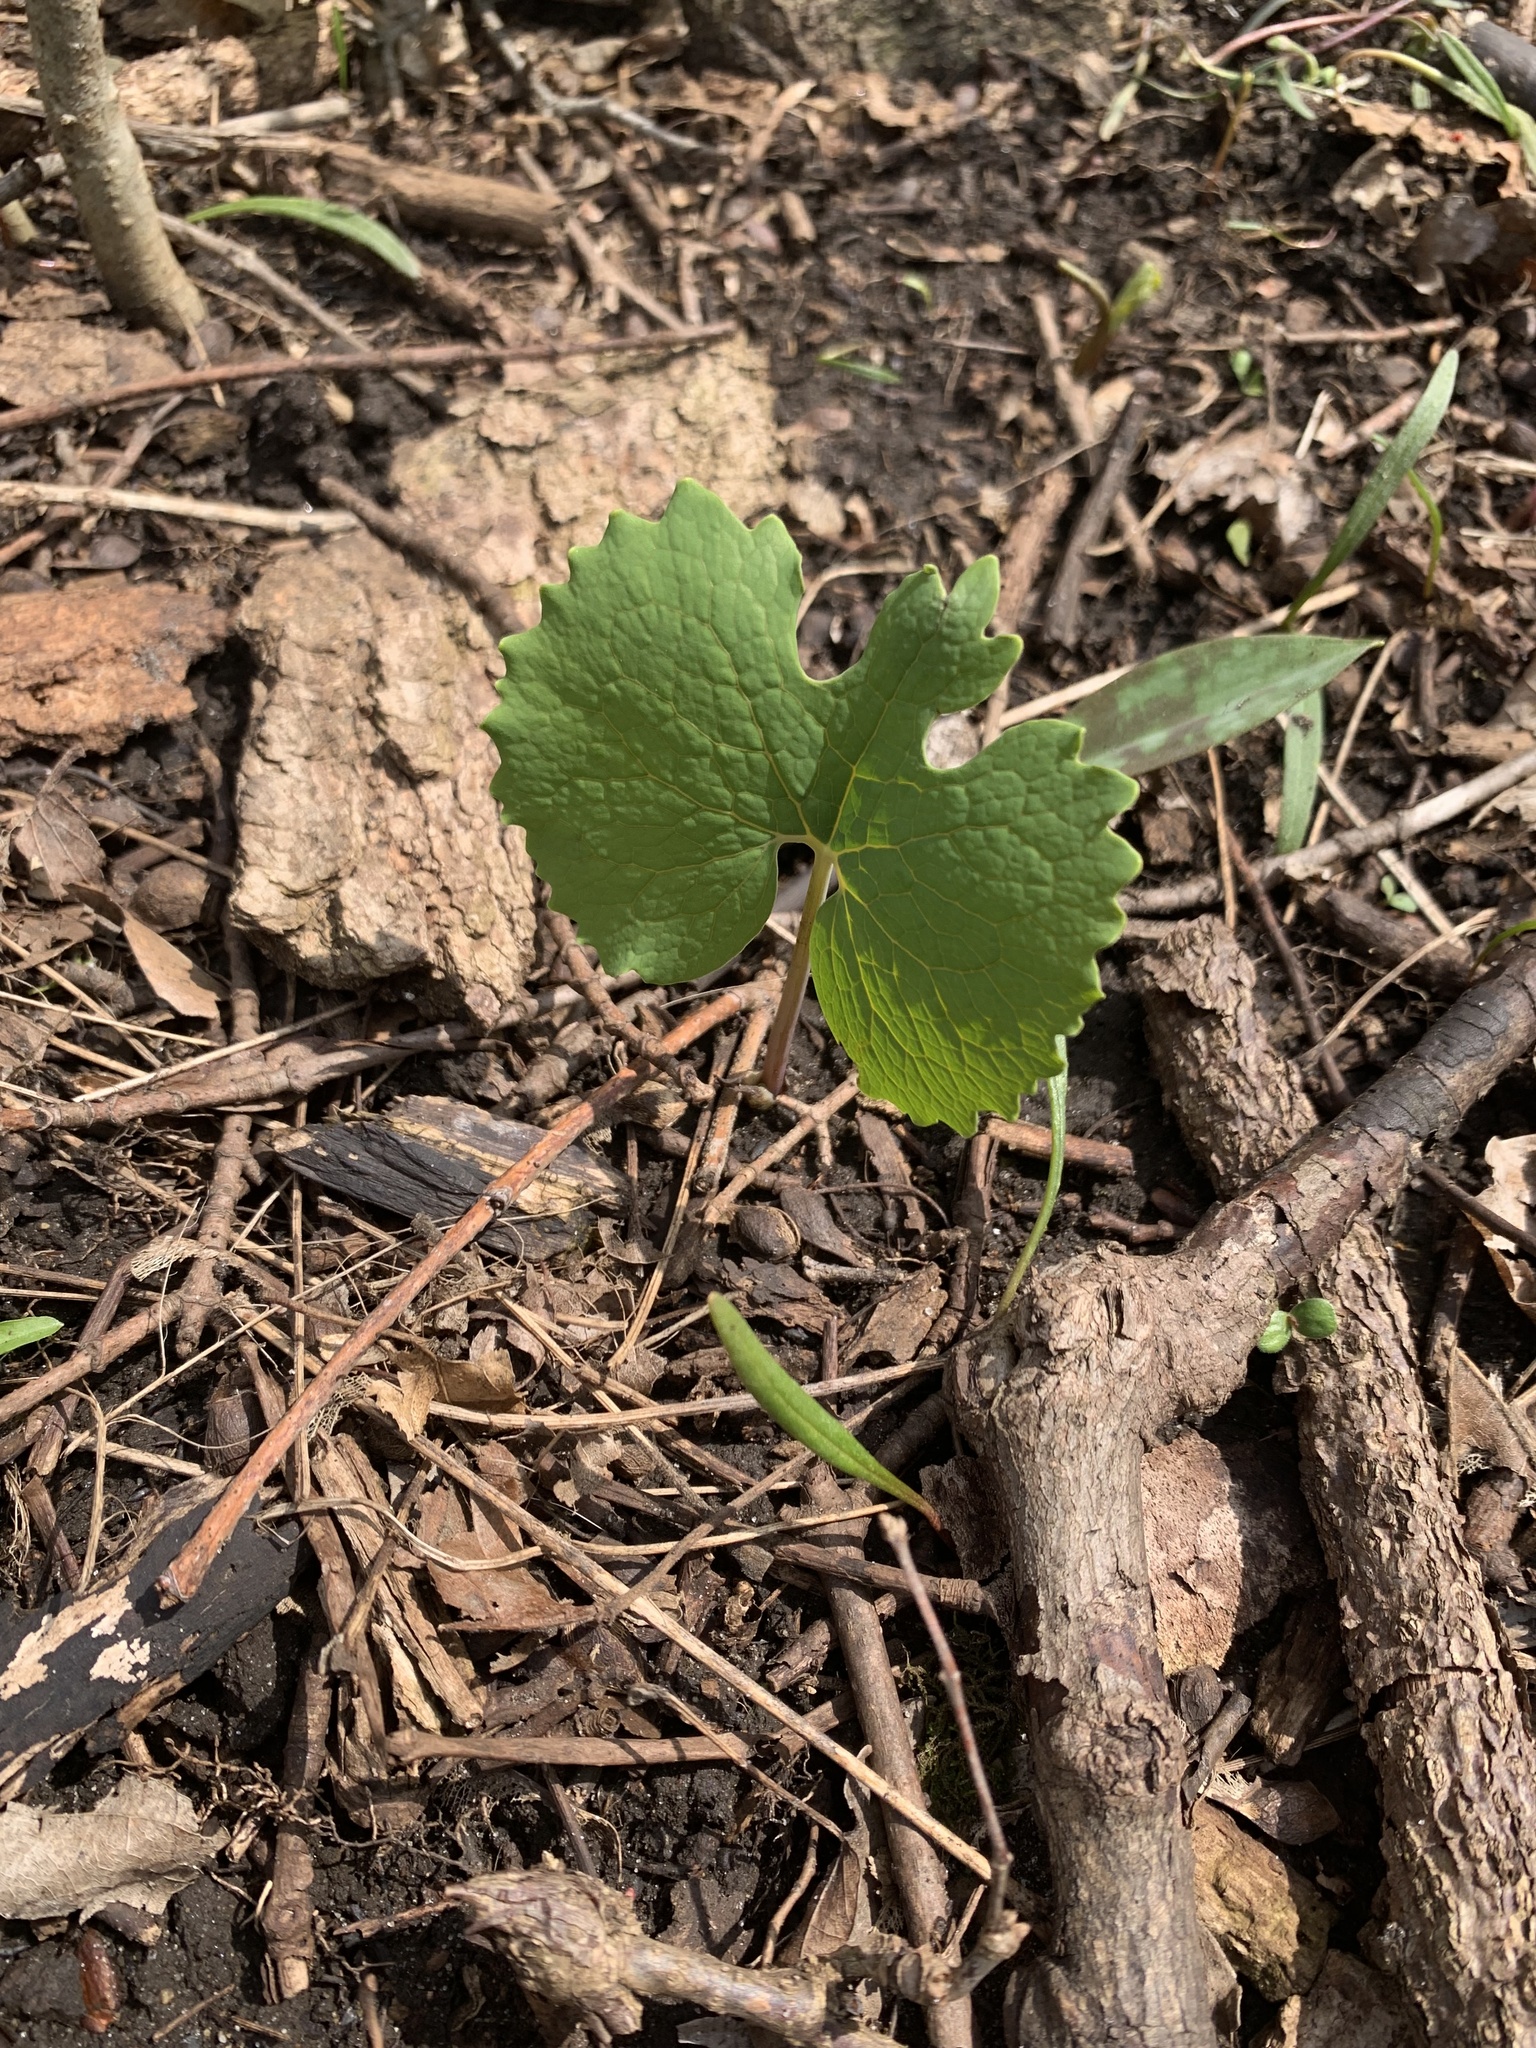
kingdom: Plantae
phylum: Tracheophyta
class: Magnoliopsida
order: Ranunculales
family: Papaveraceae
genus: Sanguinaria
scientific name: Sanguinaria canadensis
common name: Bloodroot
